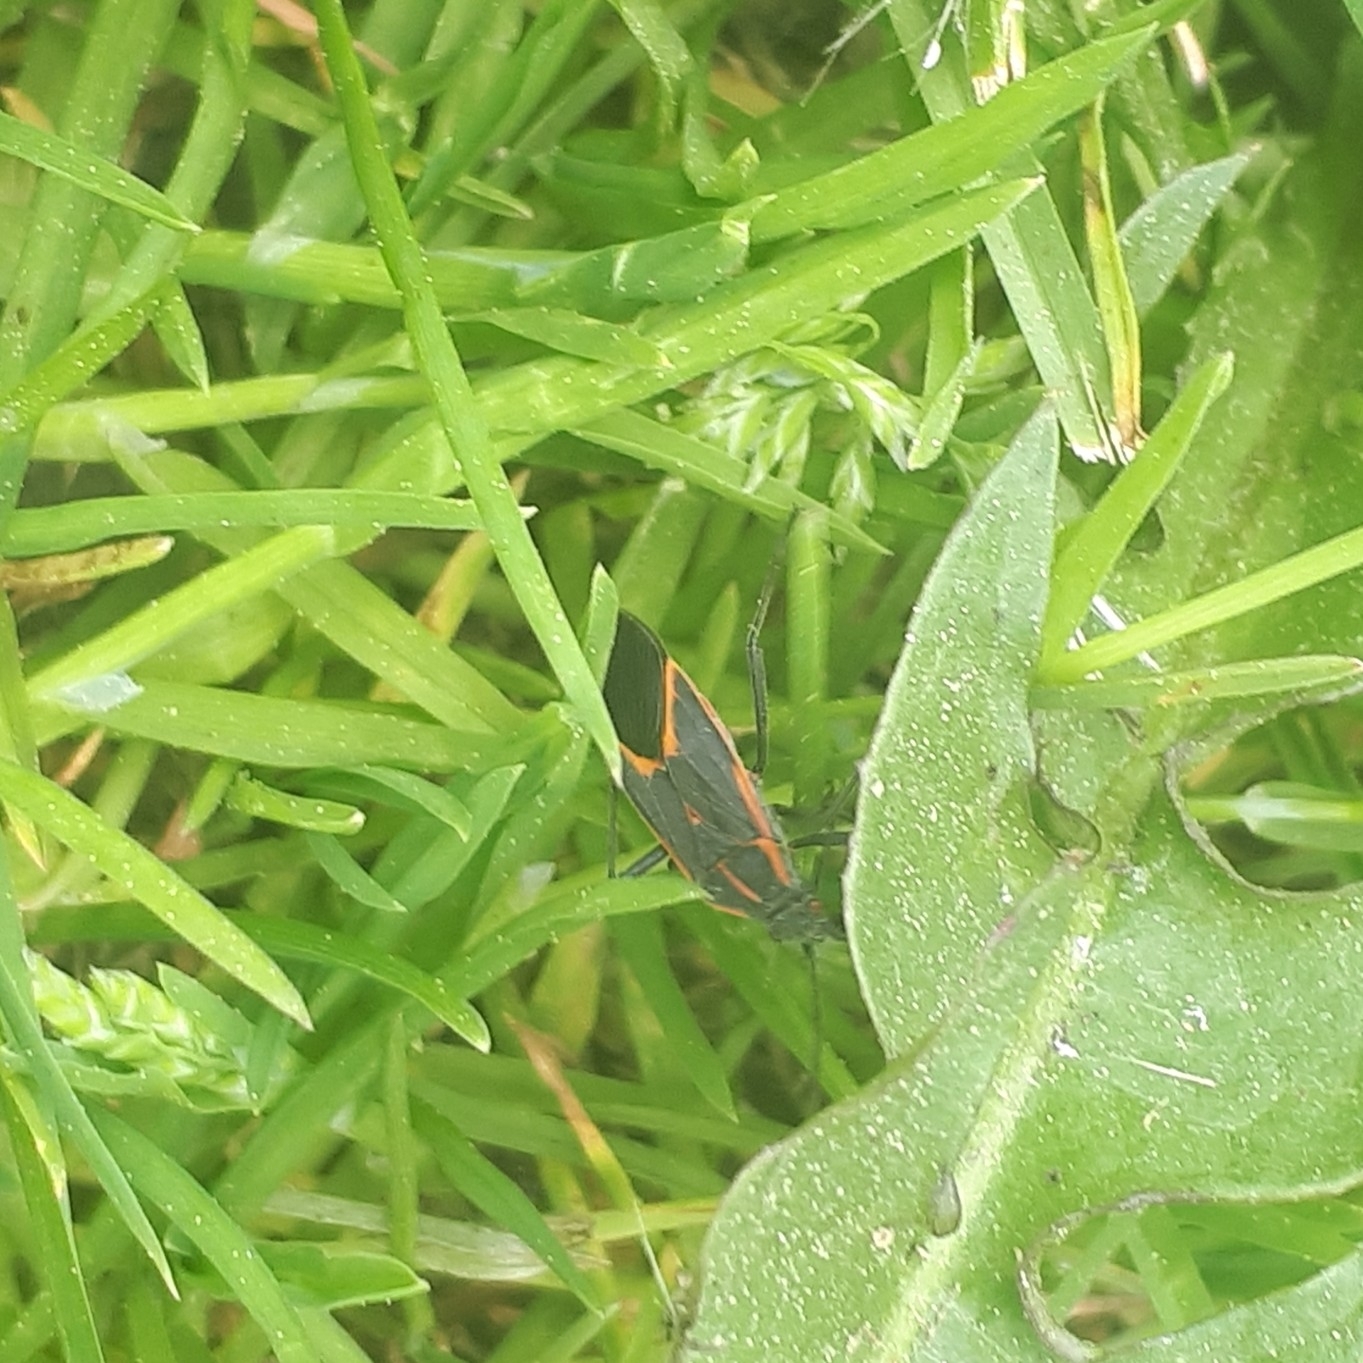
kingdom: Animalia
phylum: Arthropoda
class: Insecta
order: Hemiptera
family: Rhopalidae
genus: Boisea
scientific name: Boisea trivittata
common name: Boxelder bug
